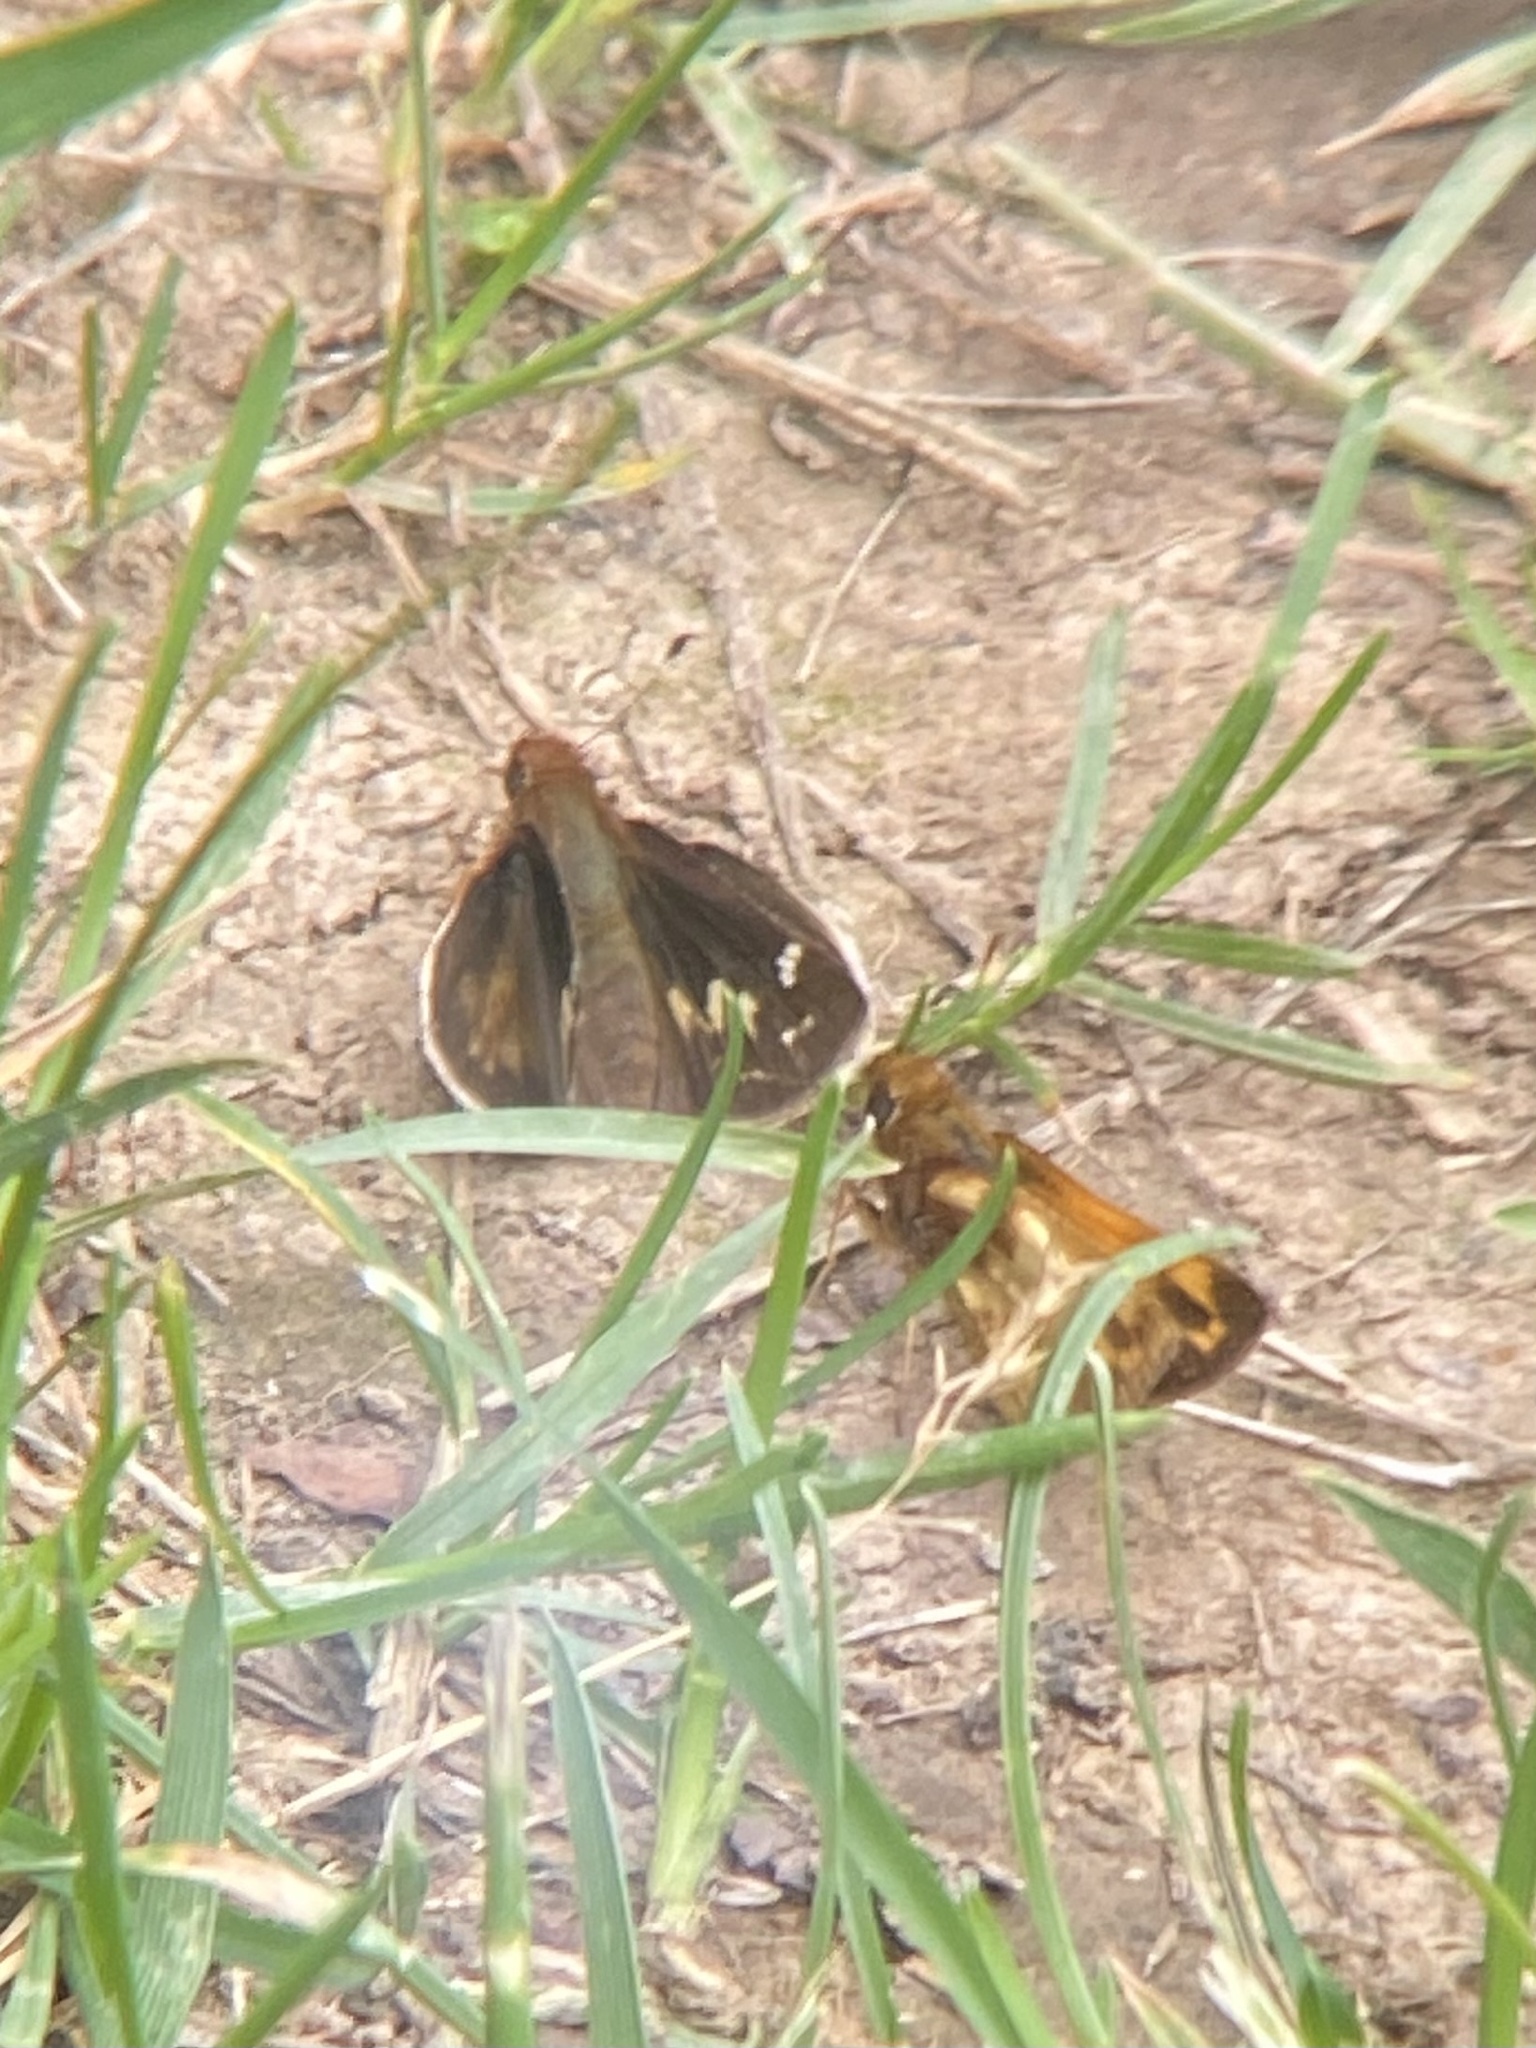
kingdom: Animalia
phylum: Arthropoda
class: Insecta
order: Lepidoptera
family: Hesperiidae
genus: Lon
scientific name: Lon zabulon
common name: Zabulon skipper
